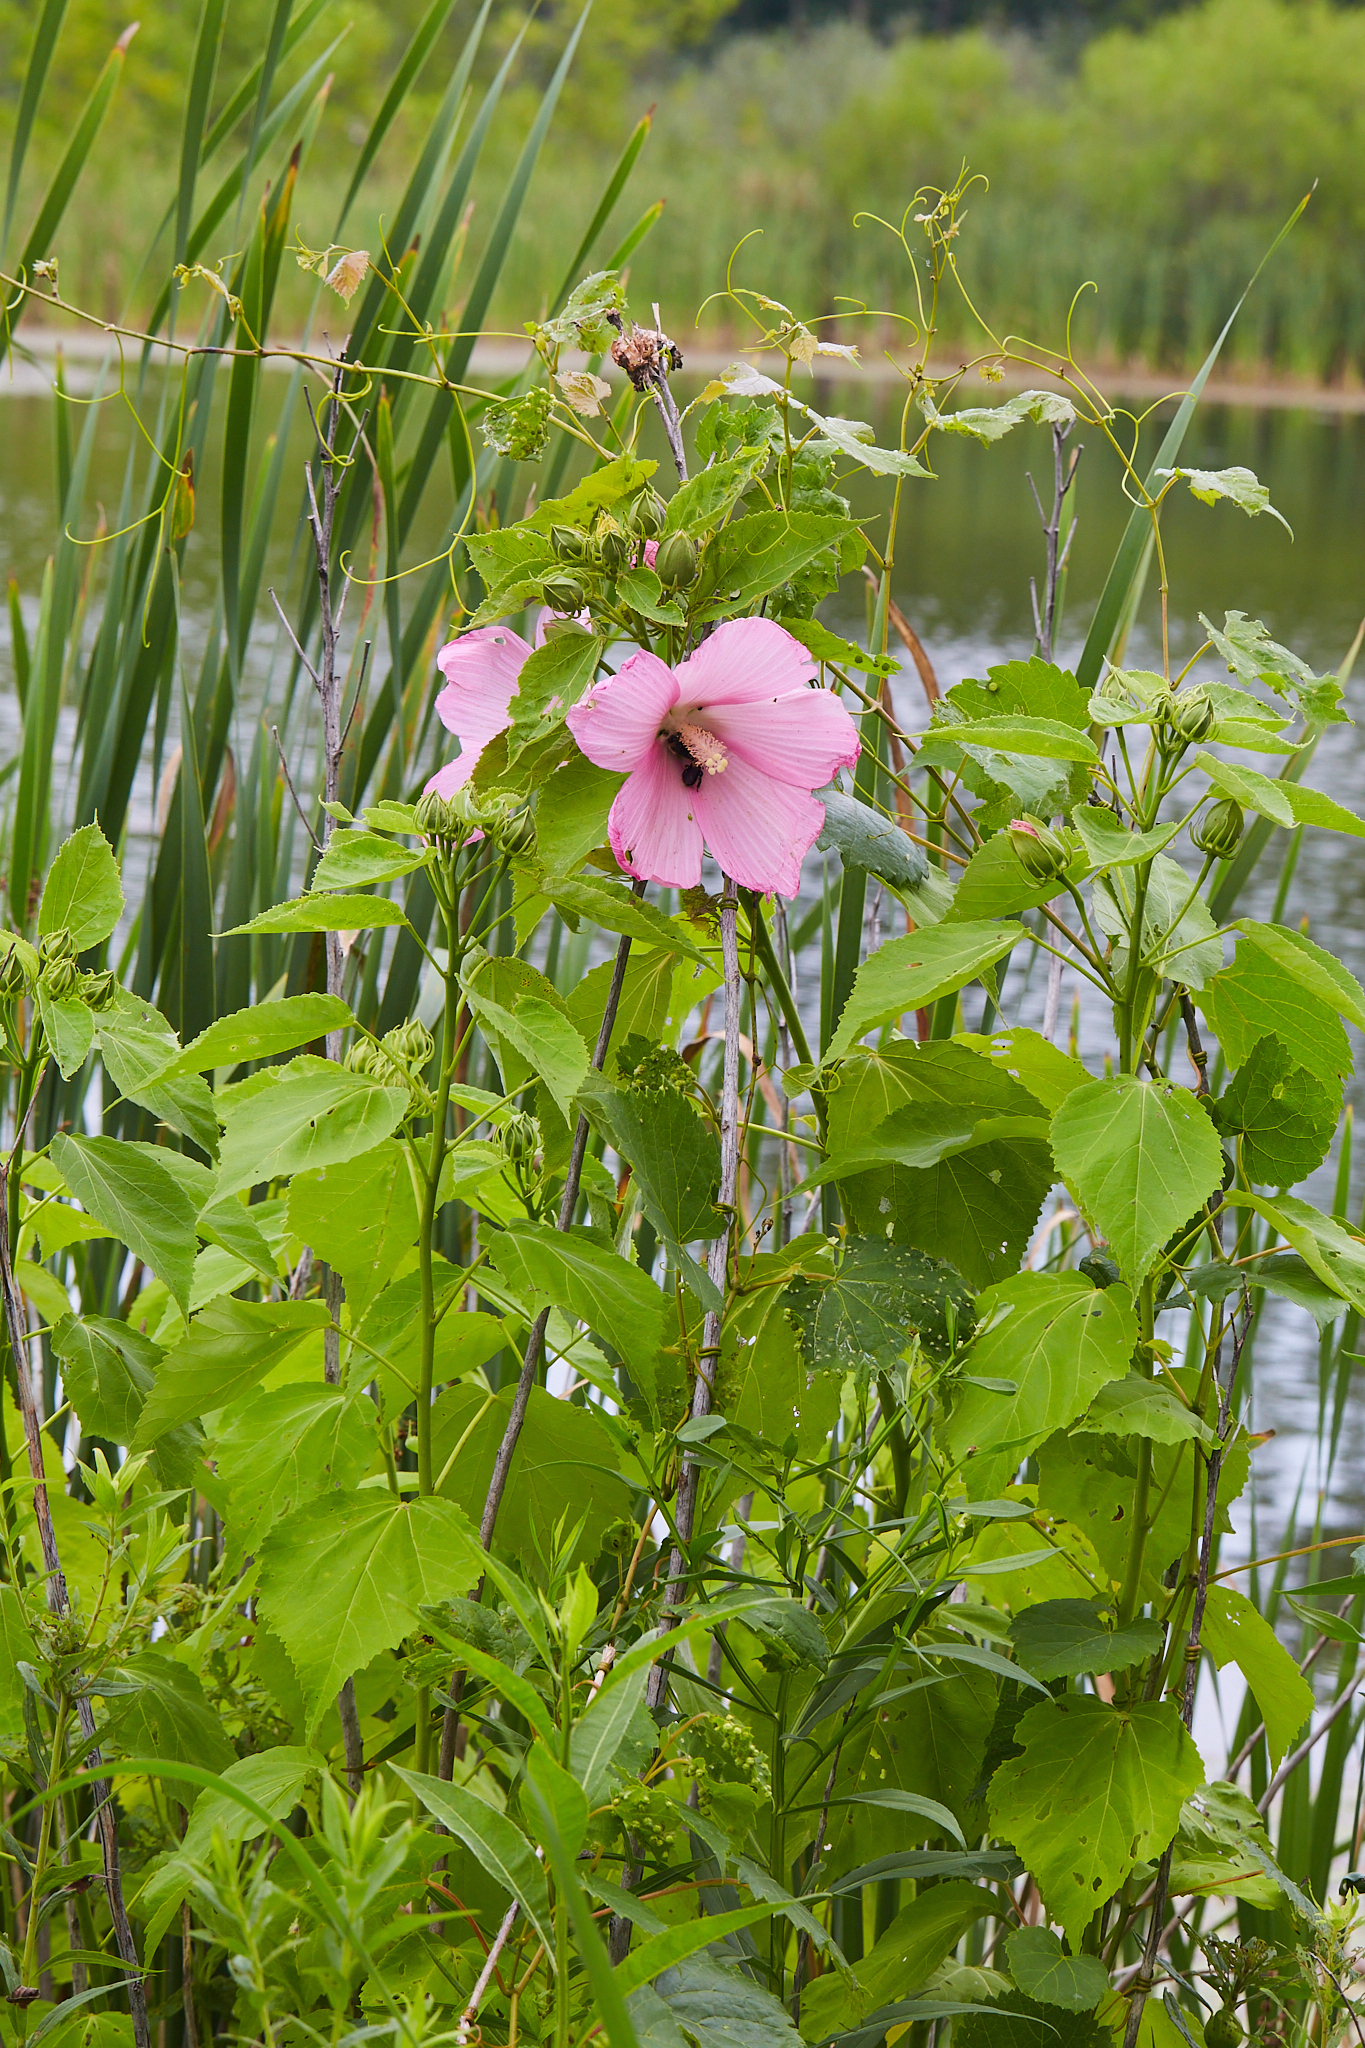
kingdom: Plantae
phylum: Tracheophyta
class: Magnoliopsida
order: Malvales
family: Malvaceae
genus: Hibiscus
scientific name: Hibiscus moscheutos
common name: Common rose-mallow
